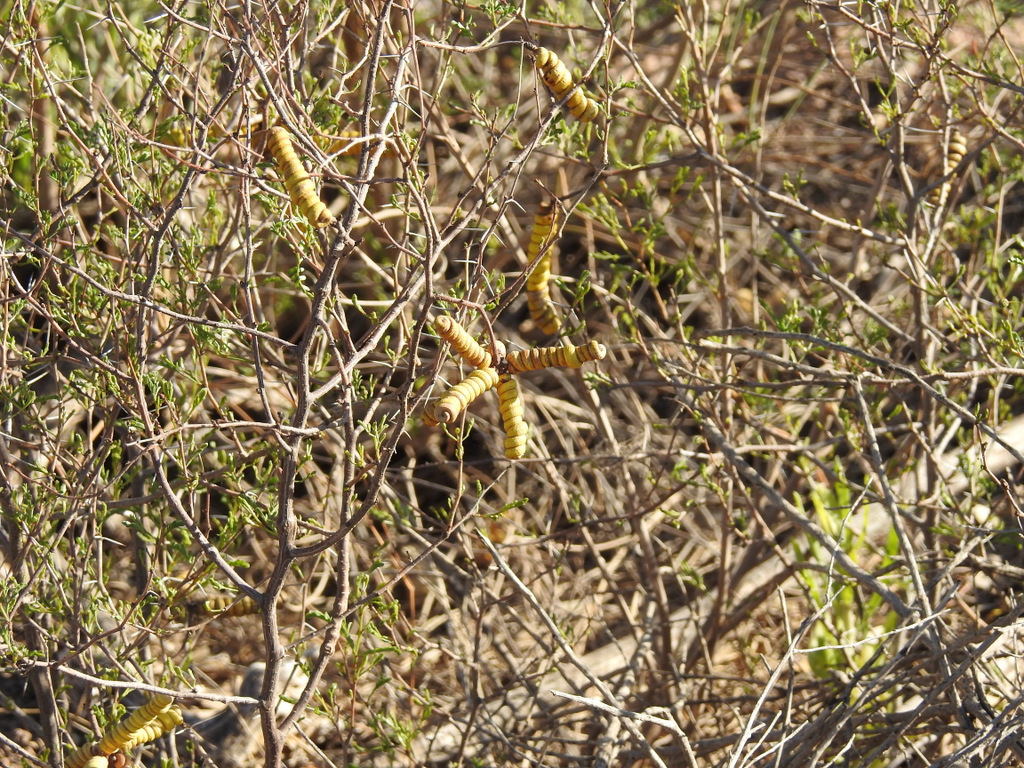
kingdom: Plantae
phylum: Tracheophyta
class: Magnoliopsida
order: Fabales
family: Fabaceae
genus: Prosopis
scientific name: Prosopis strombulifera
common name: Creeping mesquite
